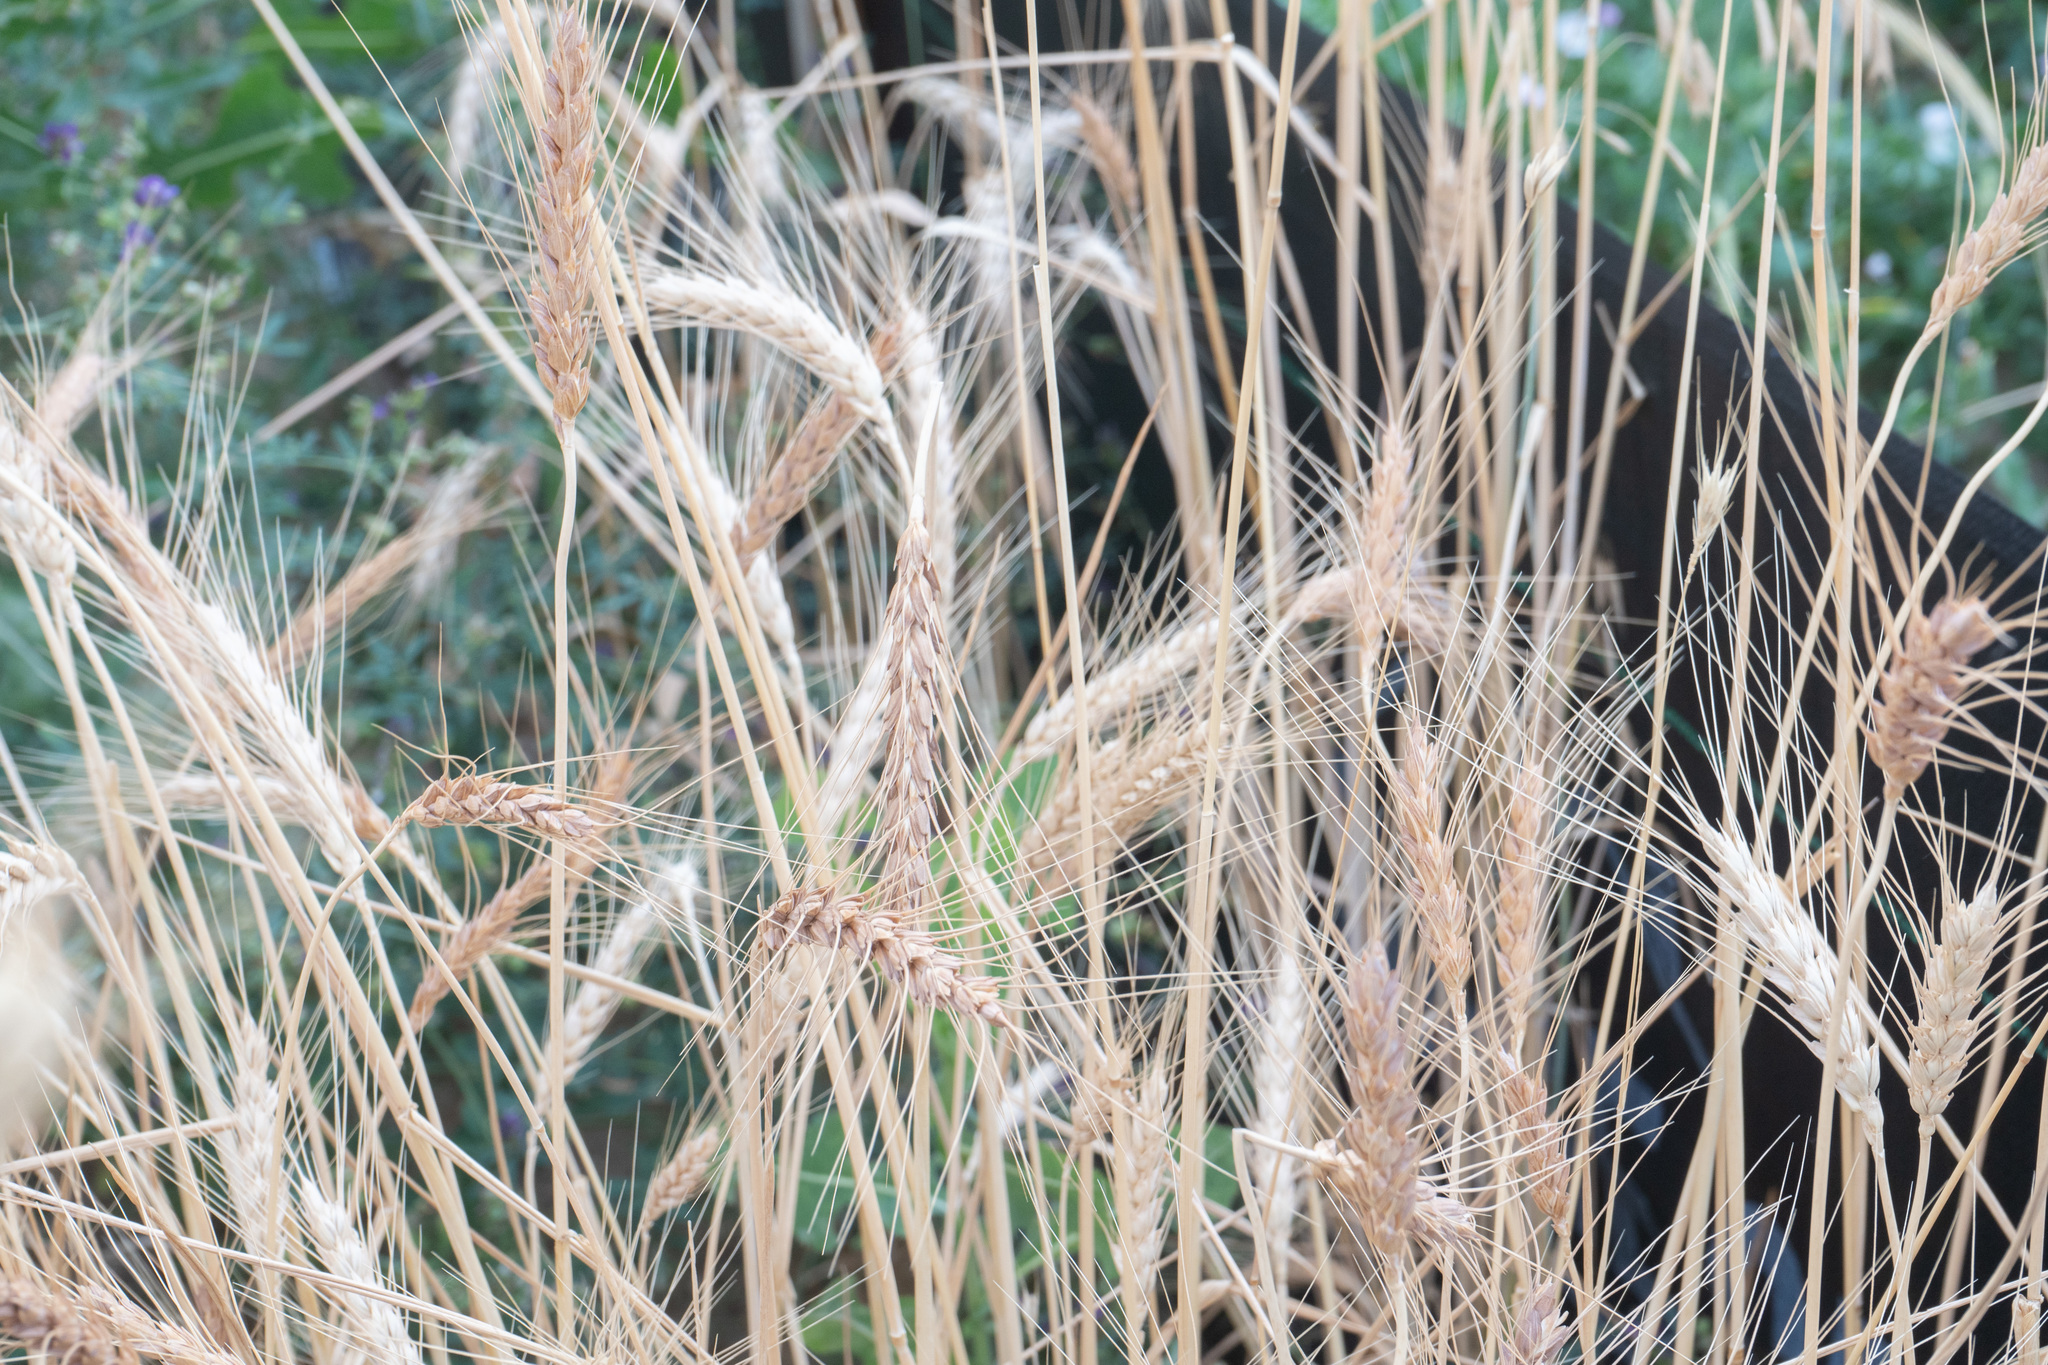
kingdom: Plantae
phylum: Tracheophyta
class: Liliopsida
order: Poales
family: Poaceae
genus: Triticum
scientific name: Triticum aestivum
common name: Common wheat
